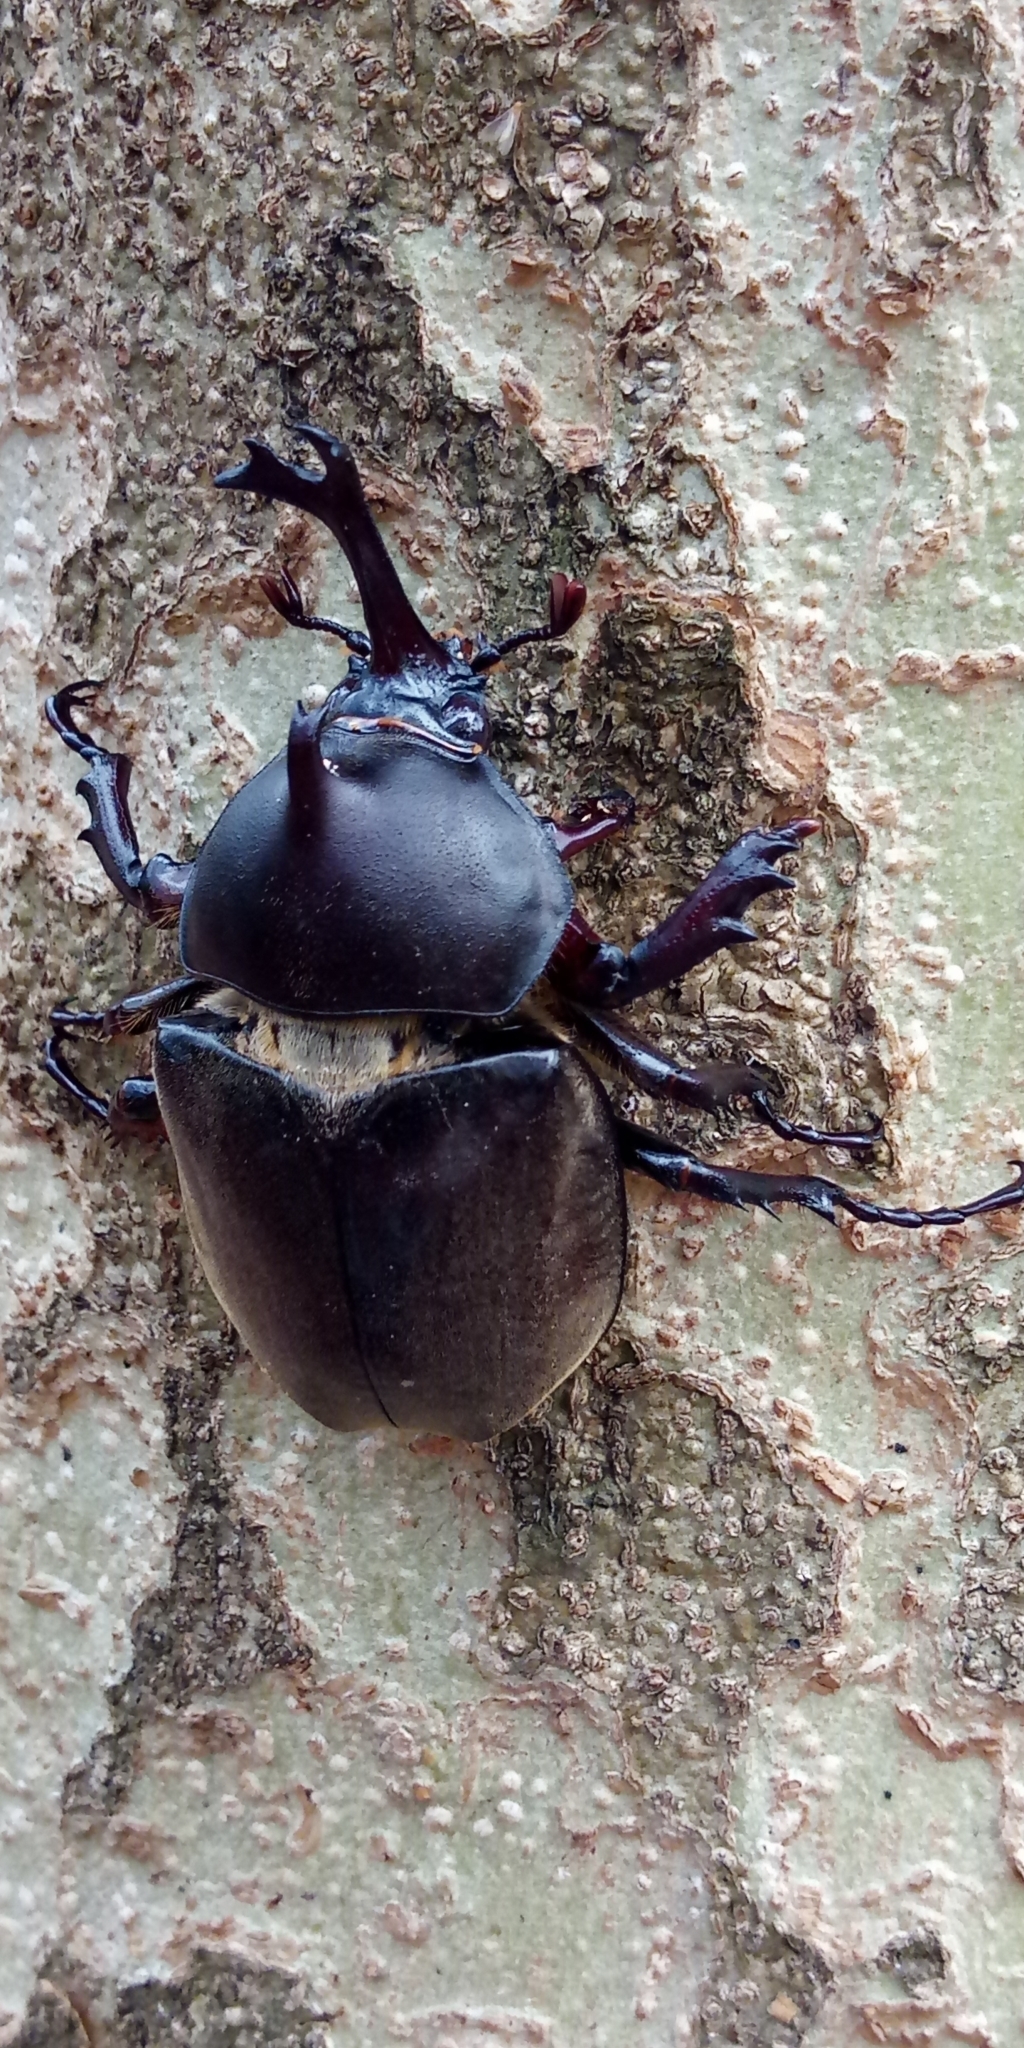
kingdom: Animalia
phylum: Arthropoda
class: Insecta
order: Coleoptera
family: Scarabaeidae
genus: Trypoxylus
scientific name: Trypoxylus dichotomus
